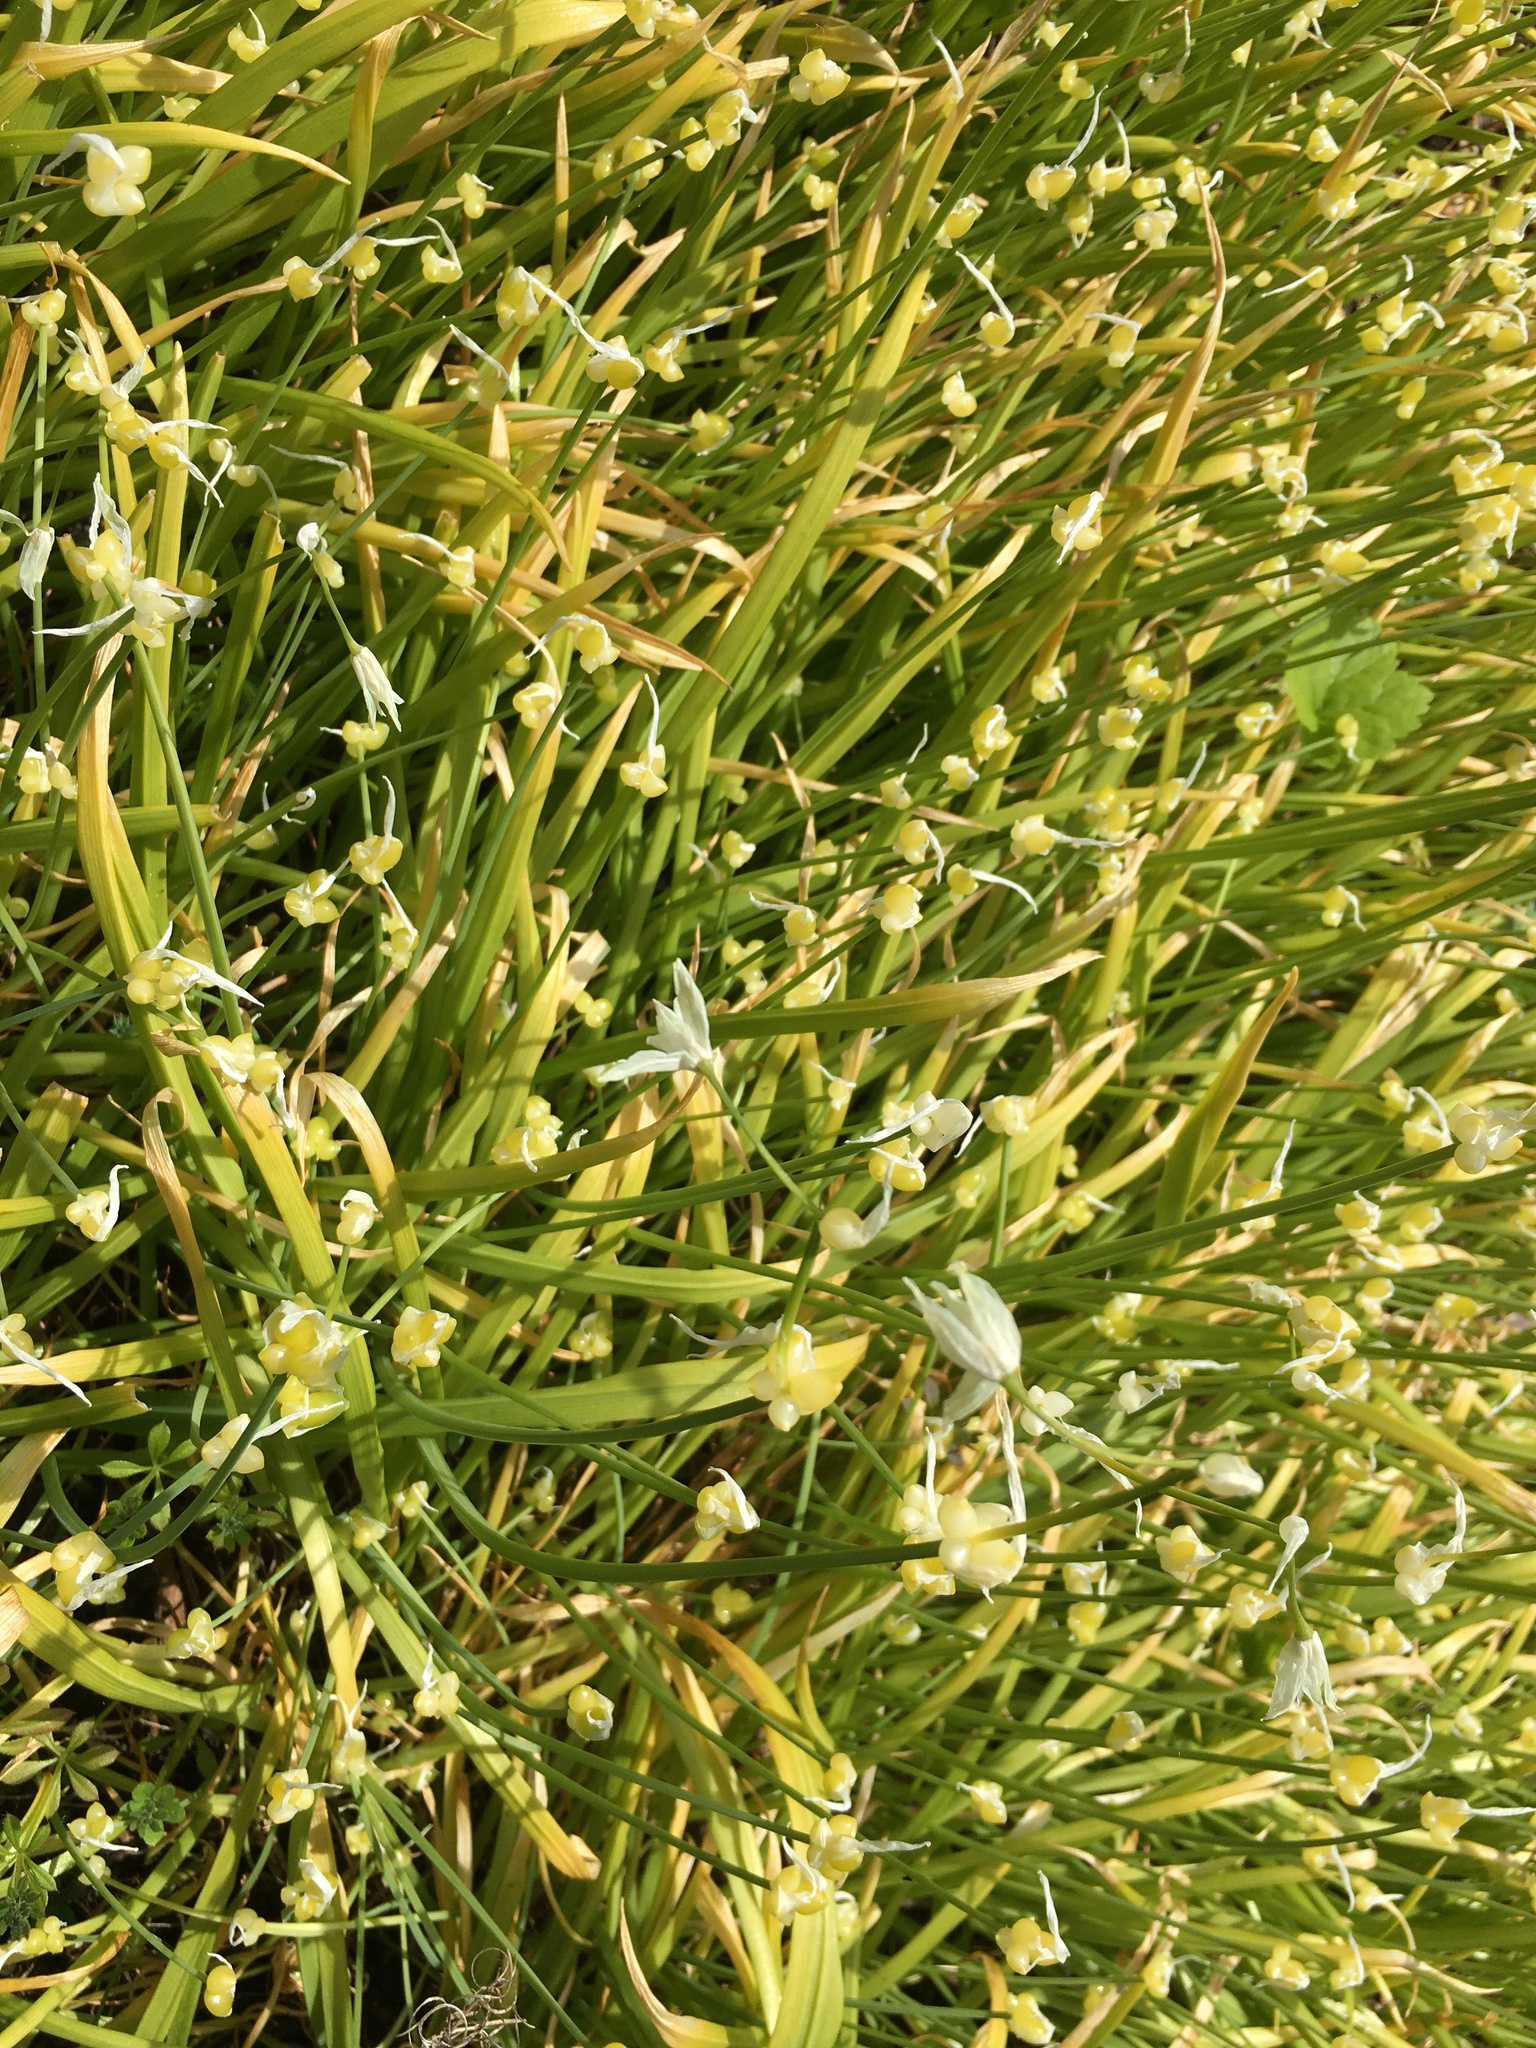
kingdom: Plantae
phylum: Tracheophyta
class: Liliopsida
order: Asparagales
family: Amaryllidaceae
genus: Allium
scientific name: Allium paradoxum
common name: Few-flowered garlic
